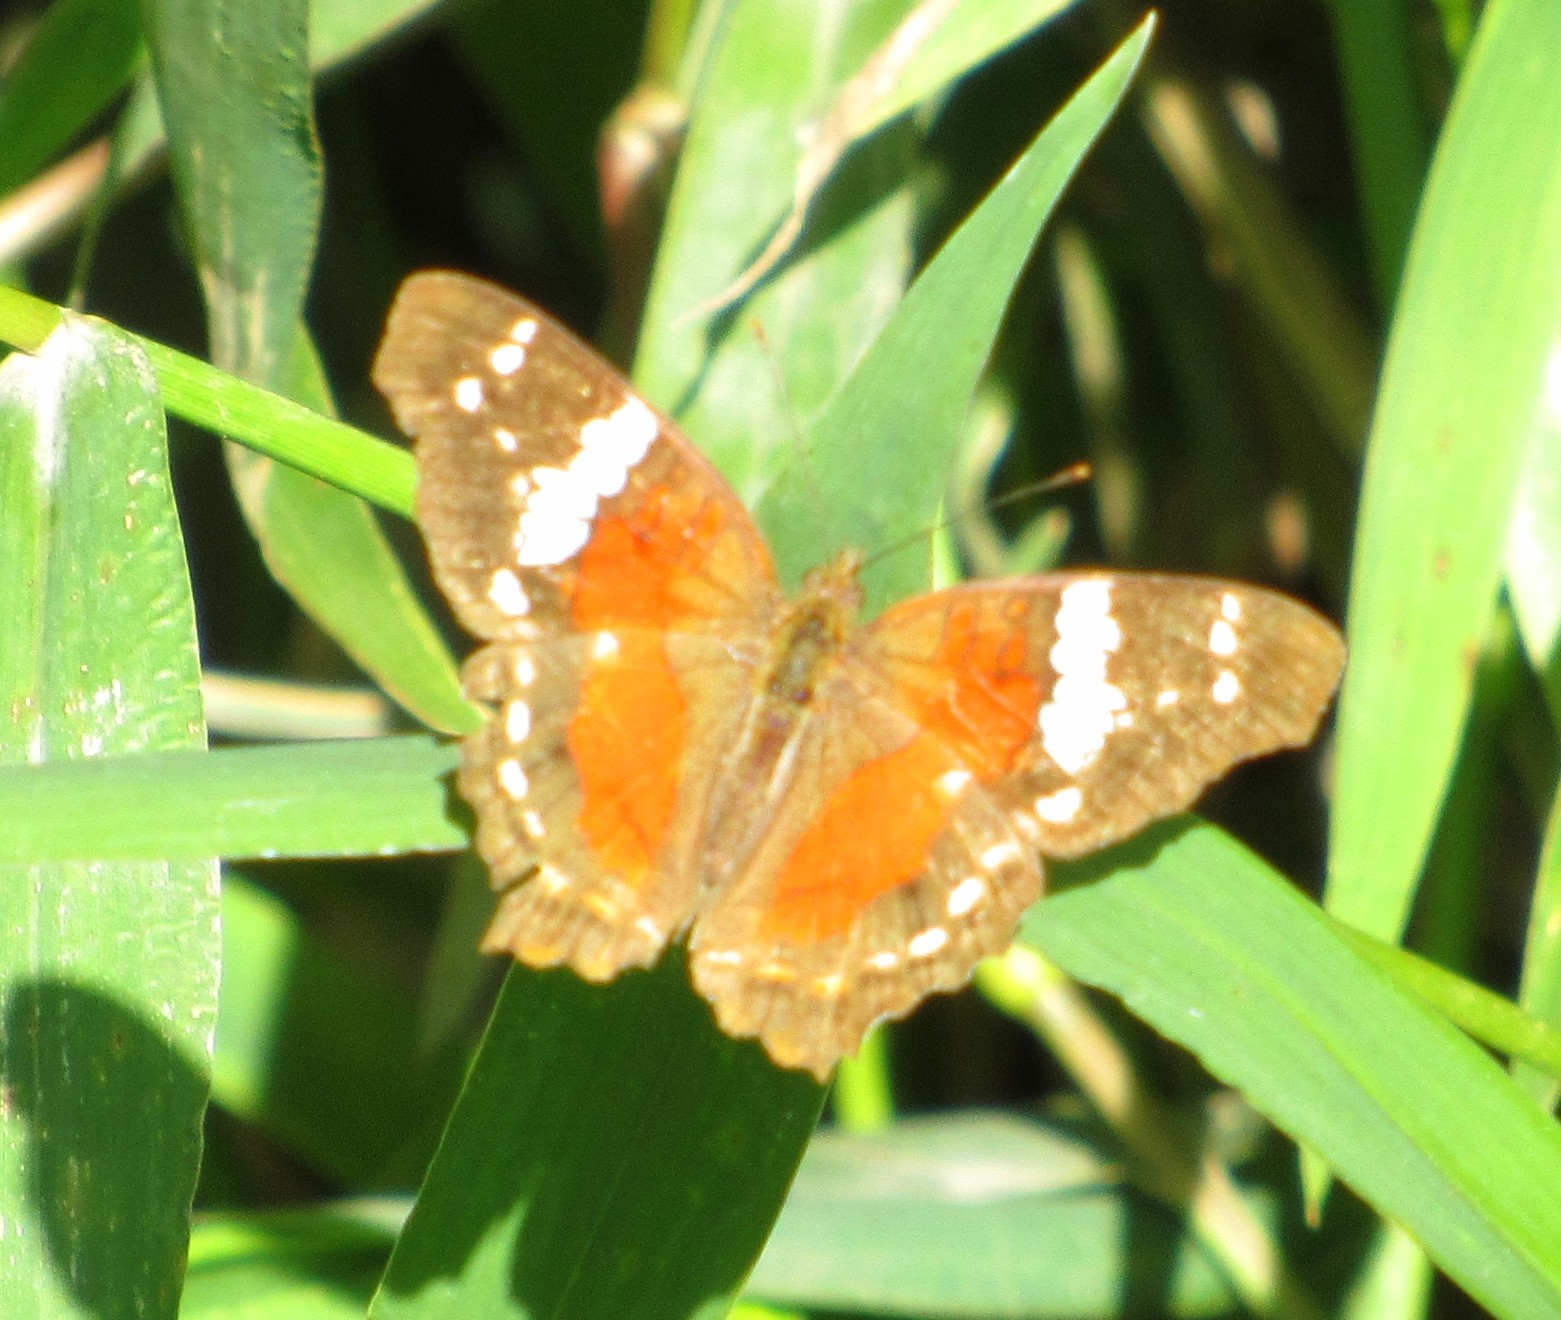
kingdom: Animalia
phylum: Arthropoda
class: Insecta
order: Lepidoptera
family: Nymphalidae
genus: Anartia
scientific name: Anartia amathea
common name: Red peacock
